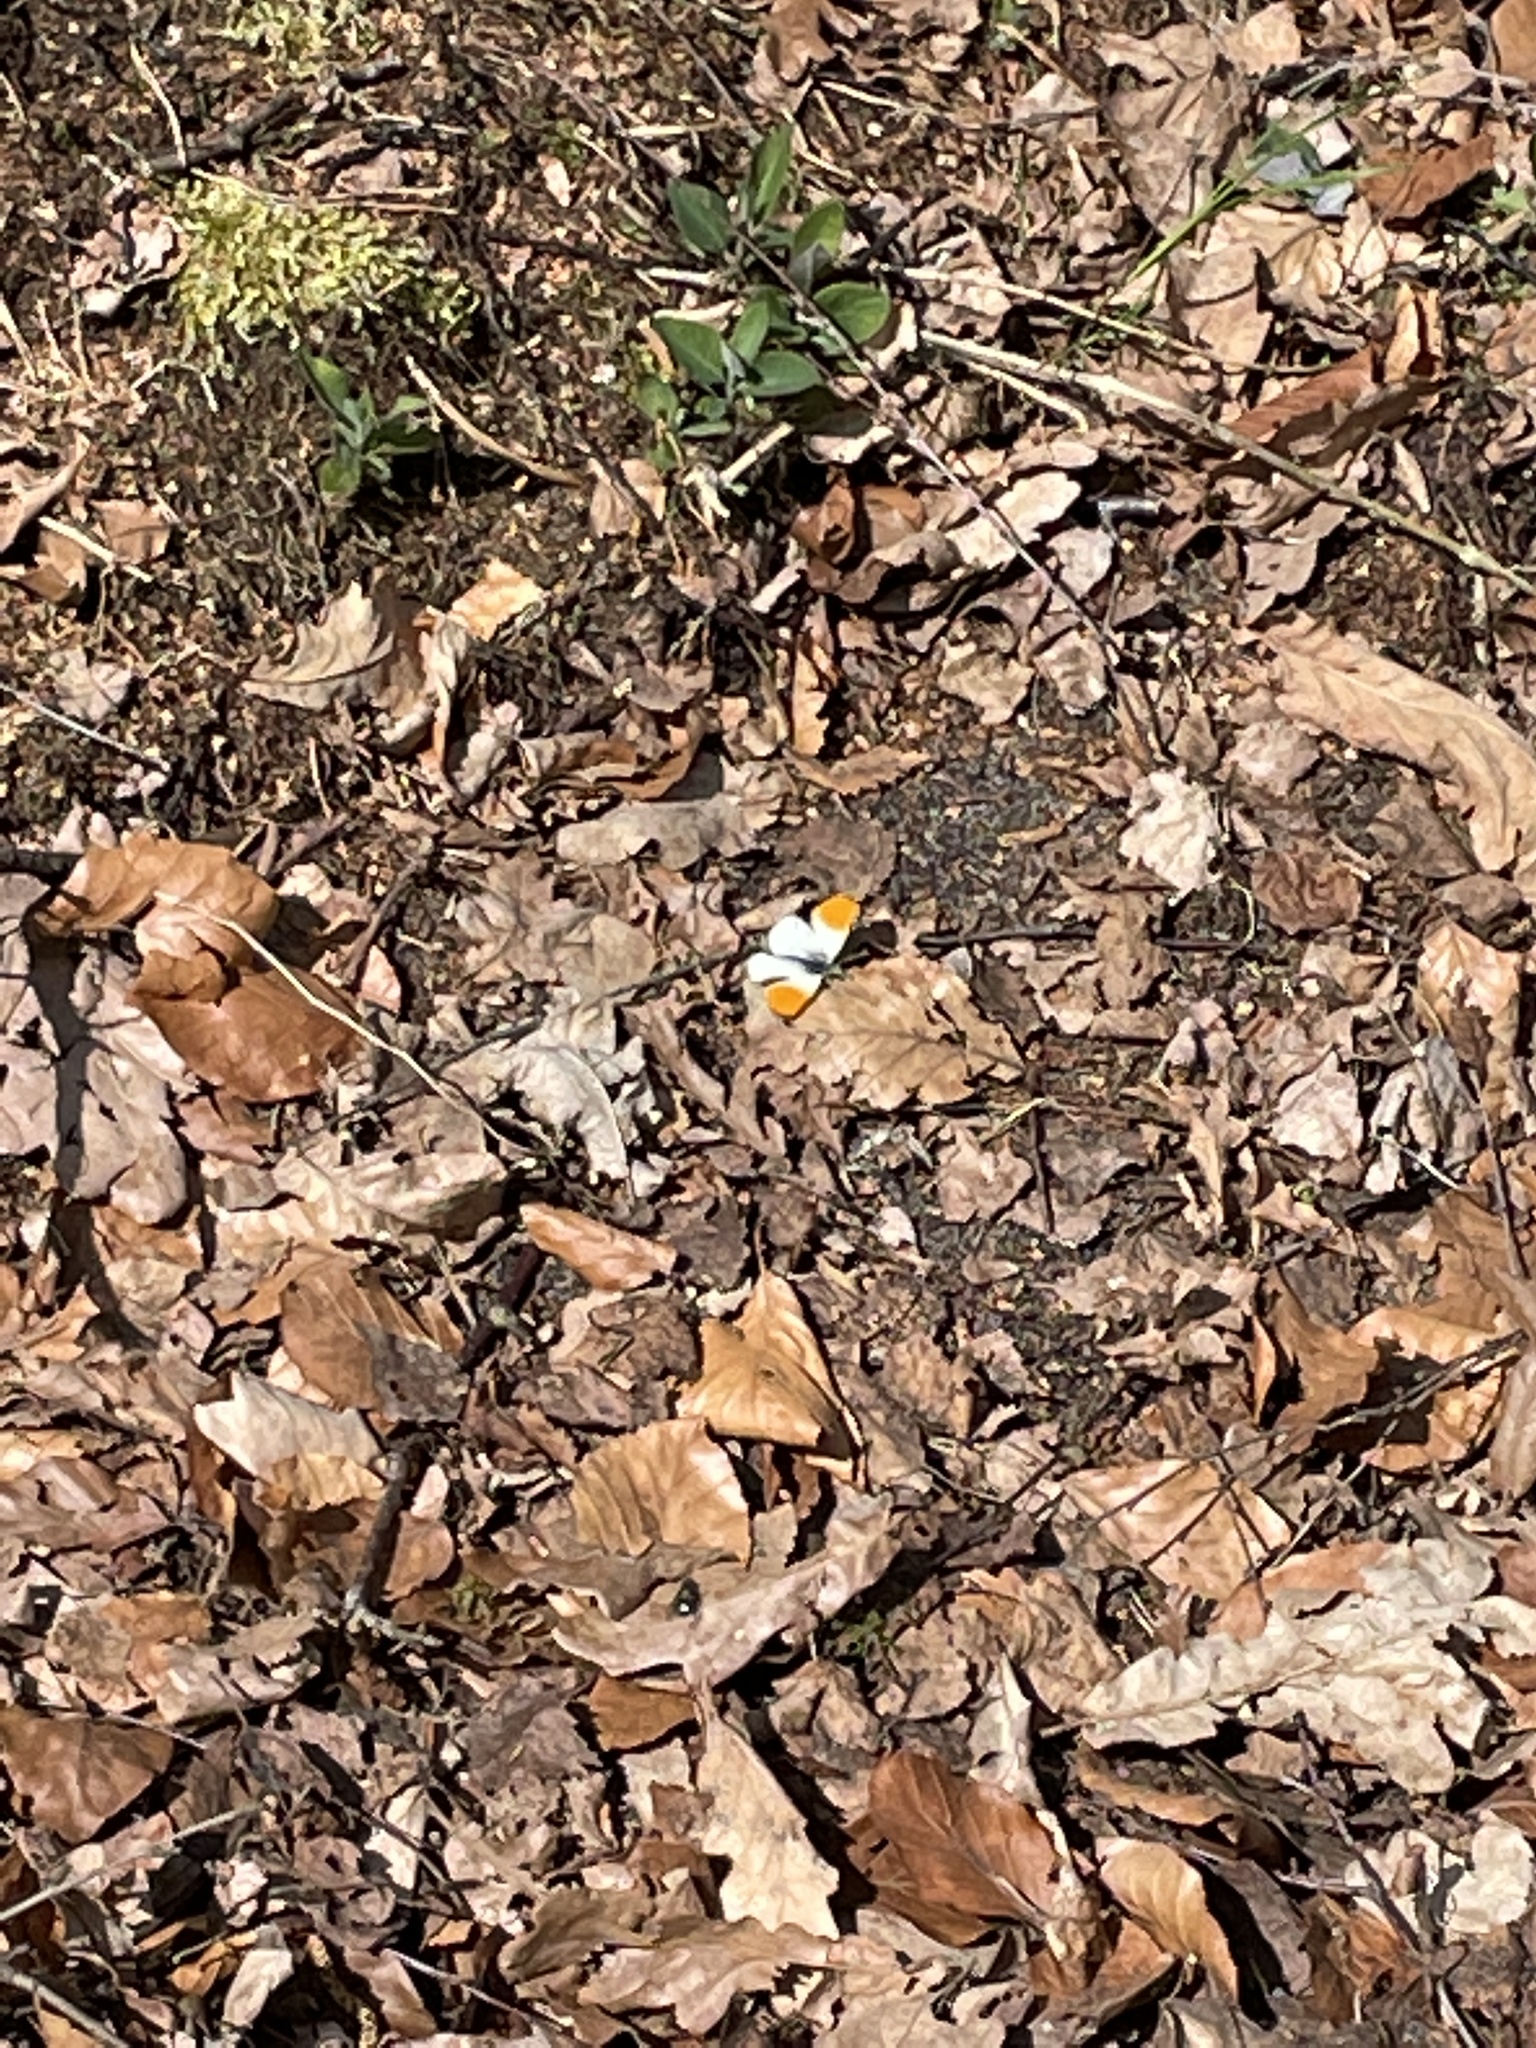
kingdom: Animalia
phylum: Arthropoda
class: Insecta
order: Lepidoptera
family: Pieridae
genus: Anthocharis
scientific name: Anthocharis cardamines
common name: Orange-tip
